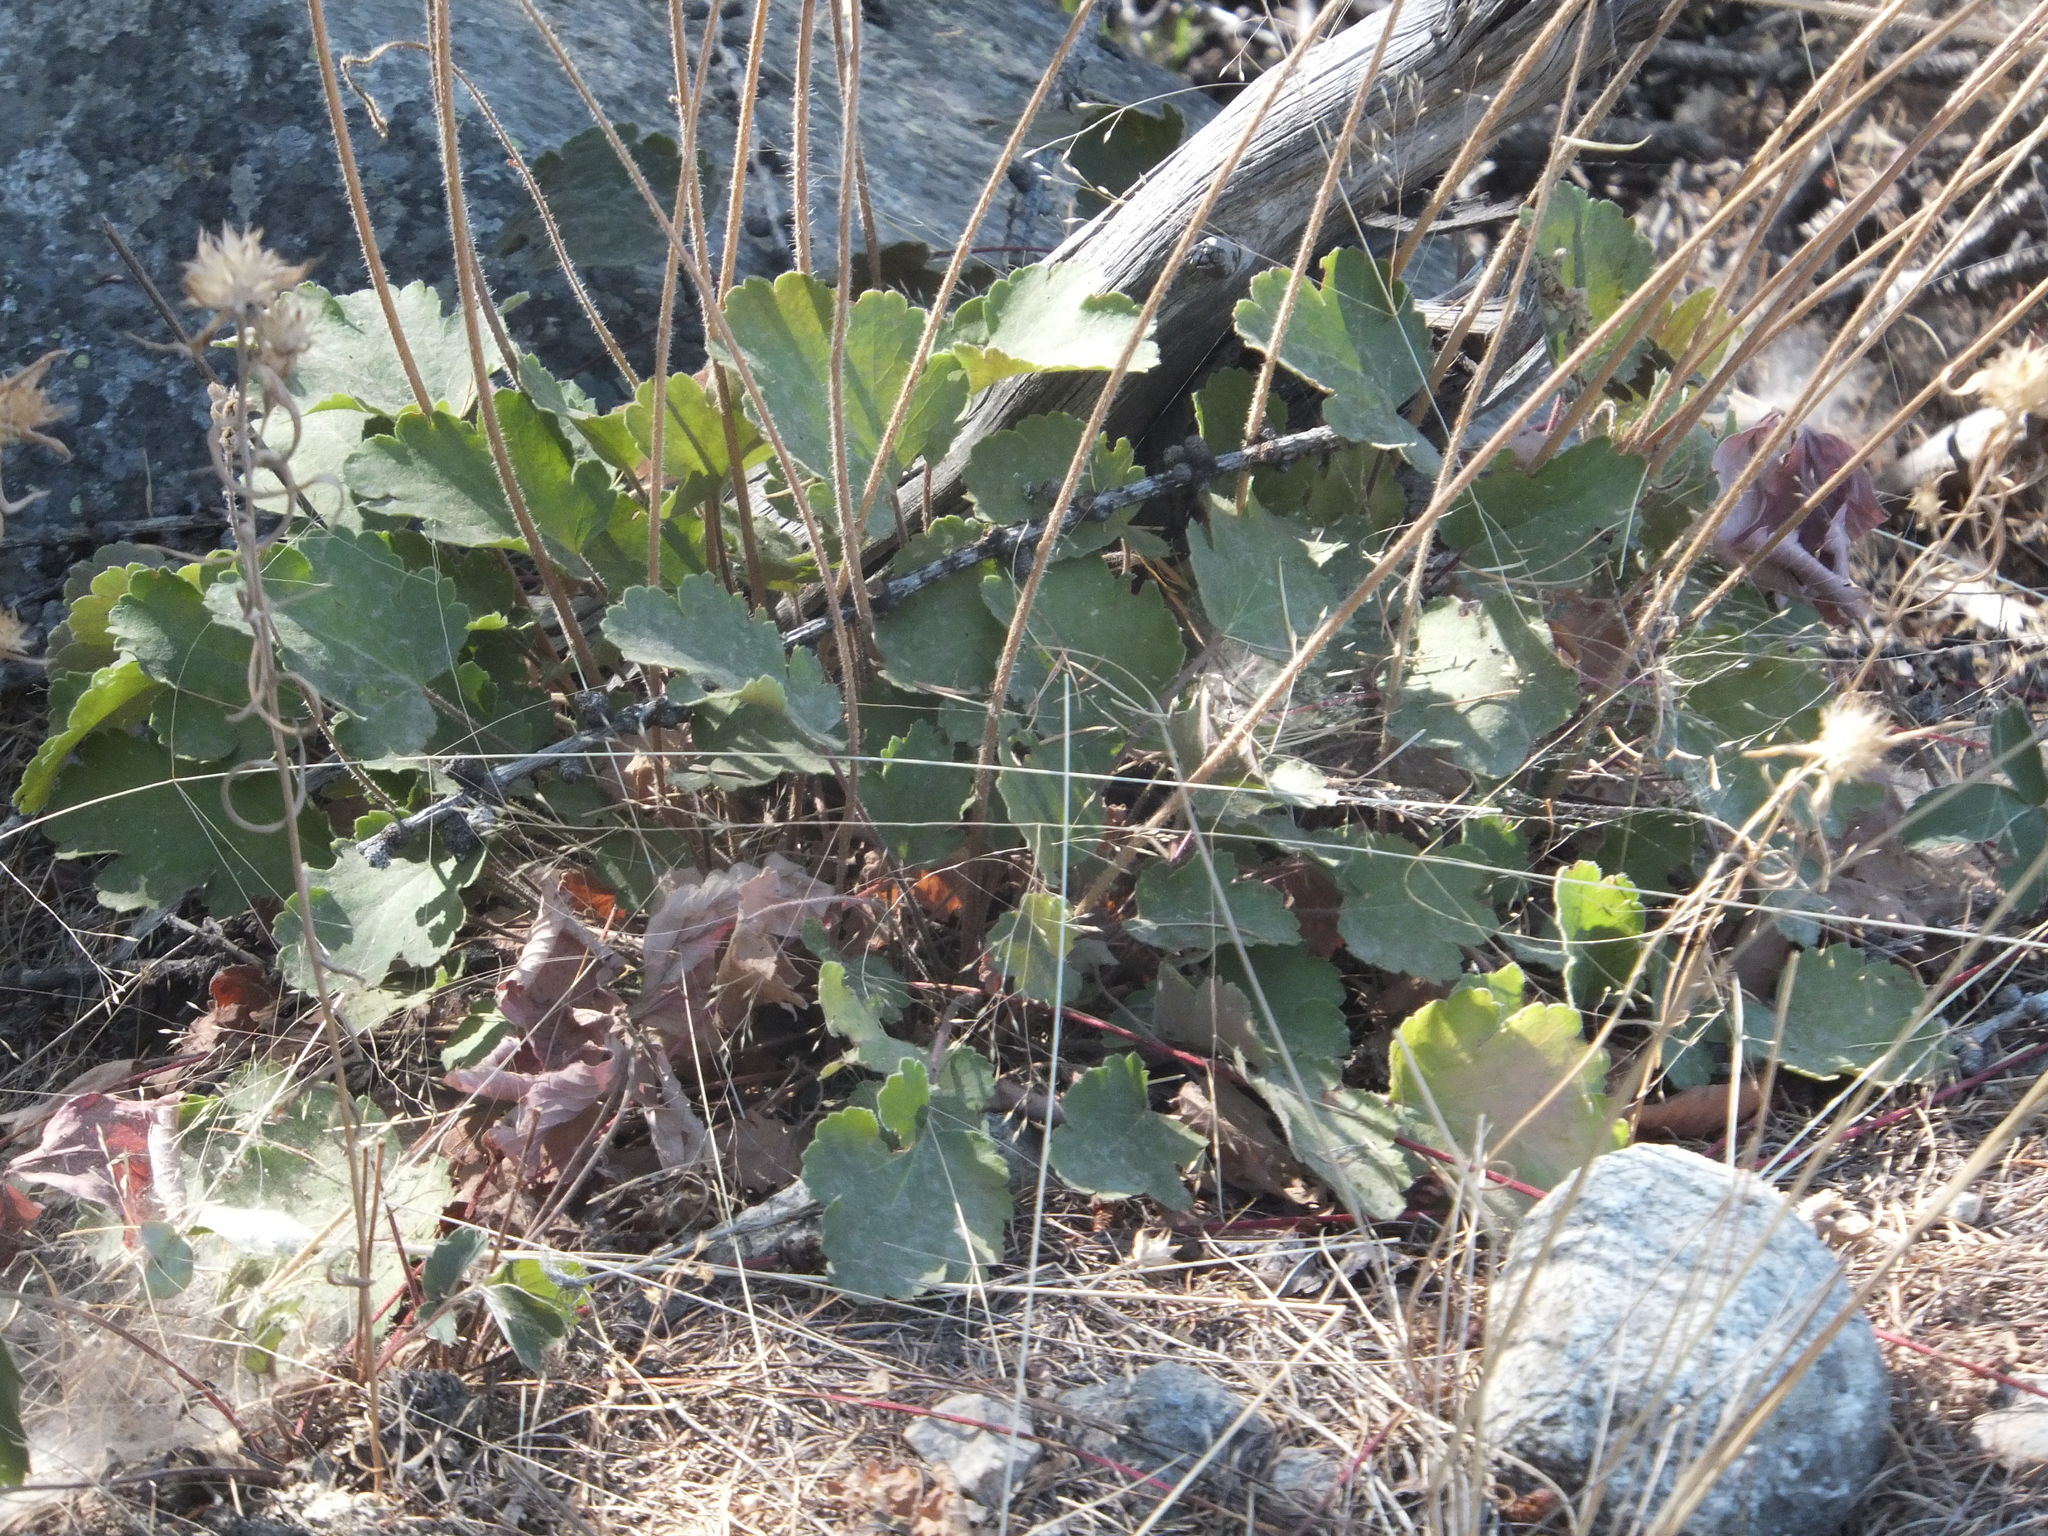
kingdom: Plantae
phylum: Tracheophyta
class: Magnoliopsida
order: Saxifragales
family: Saxifragaceae
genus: Heuchera
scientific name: Heuchera cylindrica
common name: Mat alumroot
